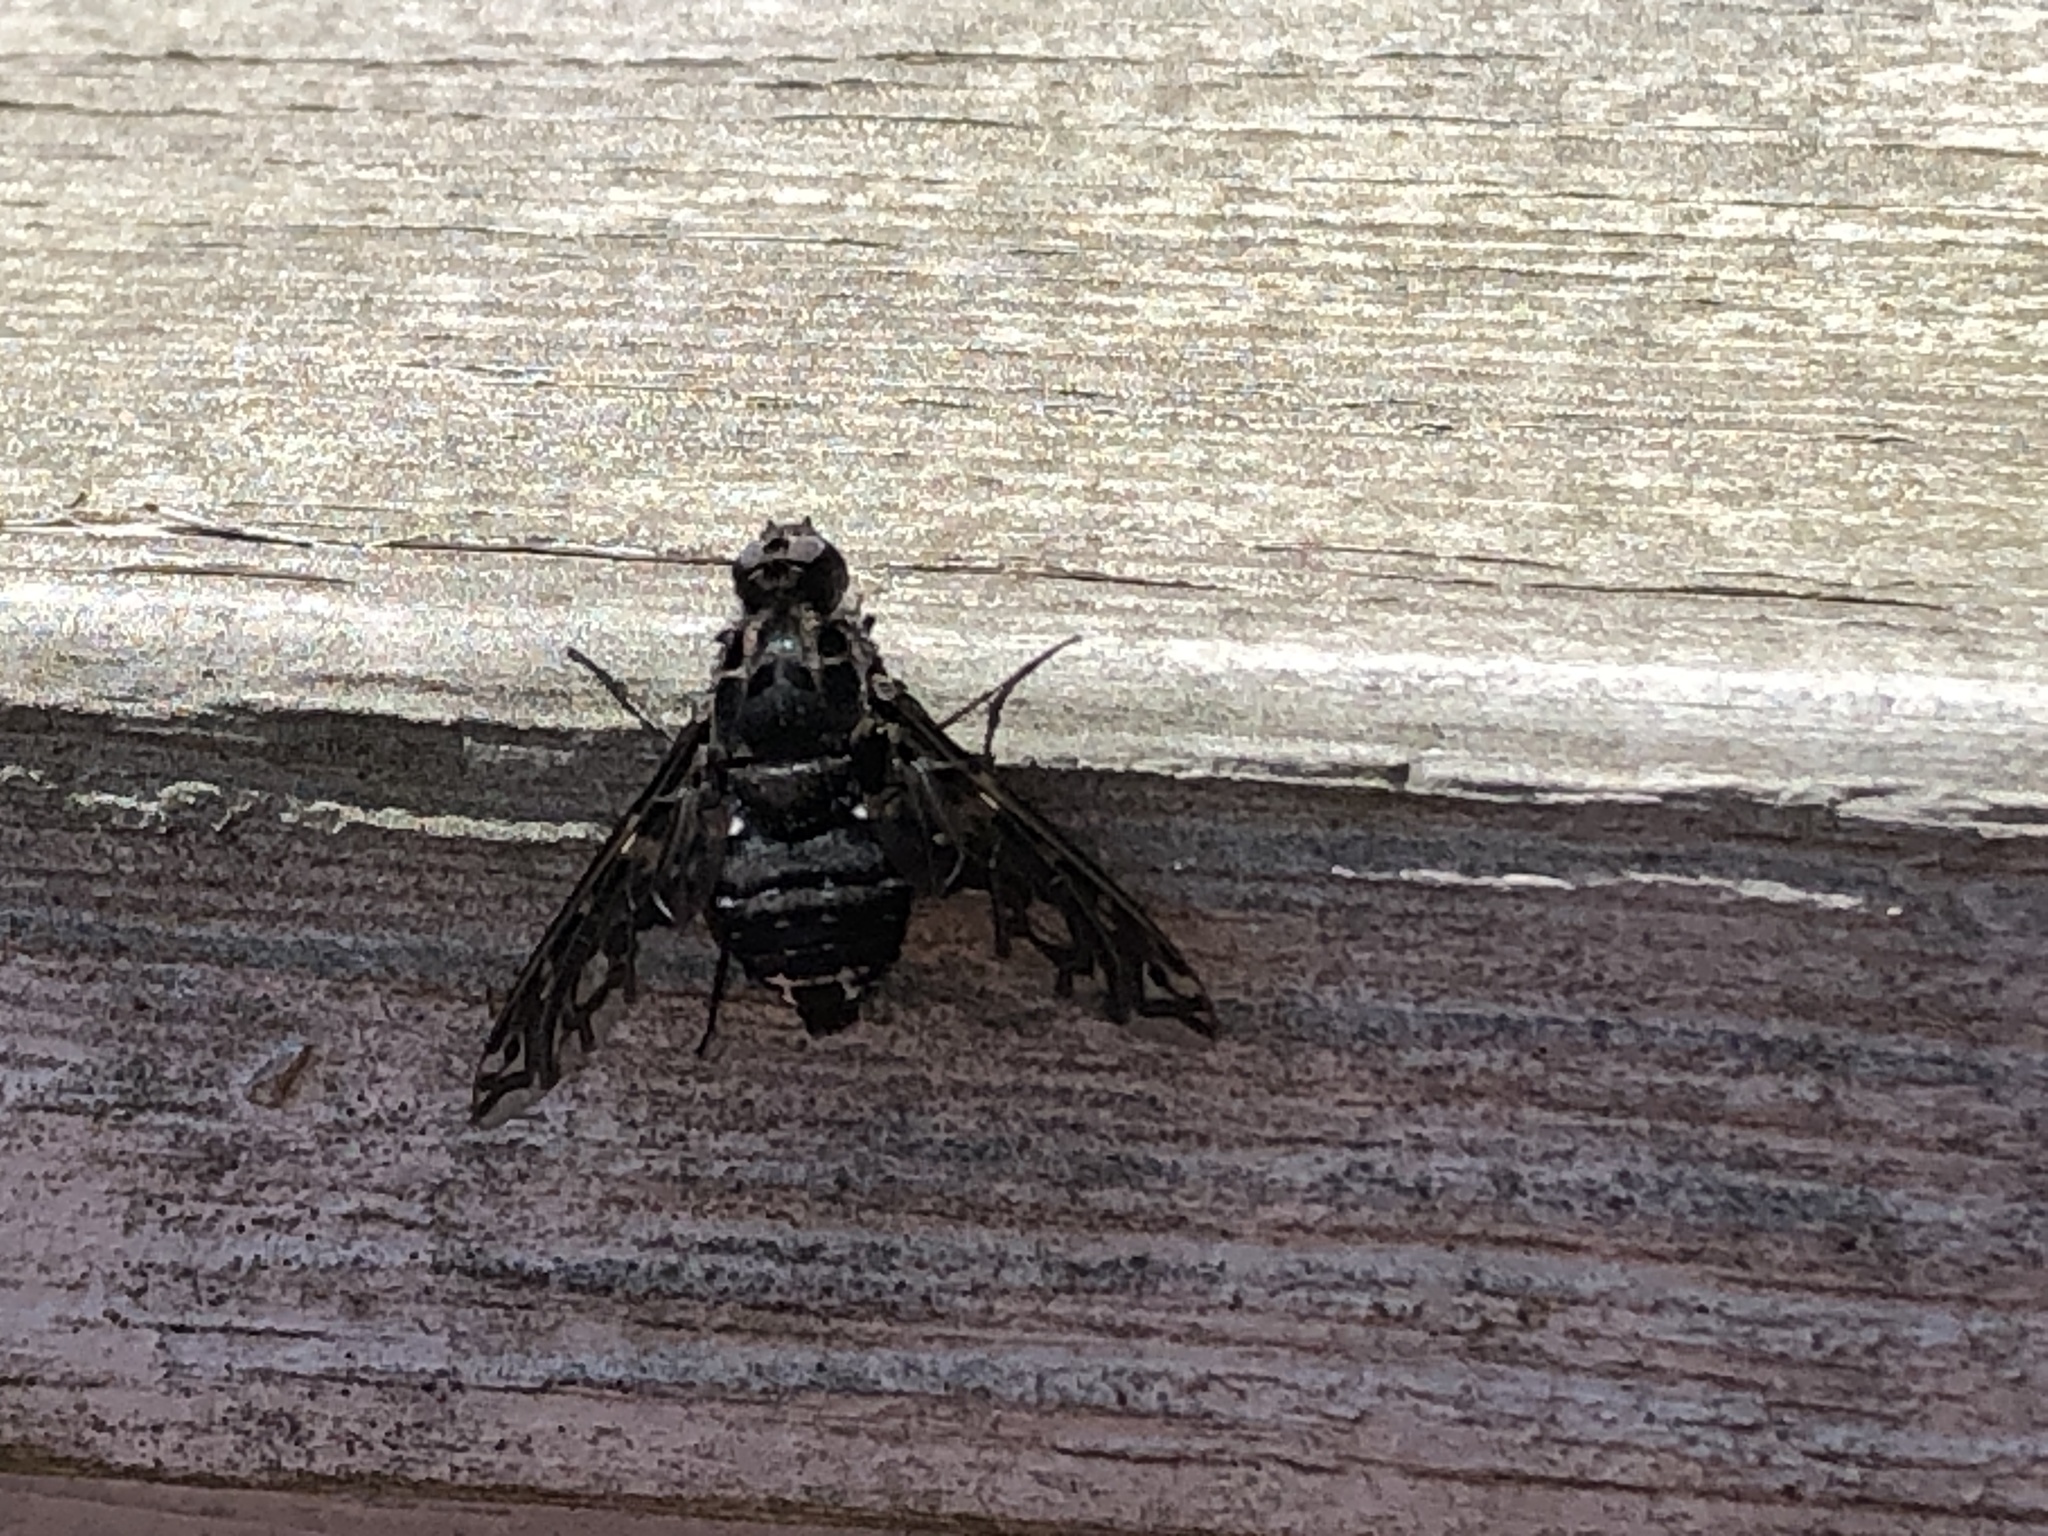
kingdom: Animalia
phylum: Arthropoda
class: Insecta
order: Diptera
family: Bombyliidae
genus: Xenox
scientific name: Xenox tigrinus
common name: Tiger bee fly
